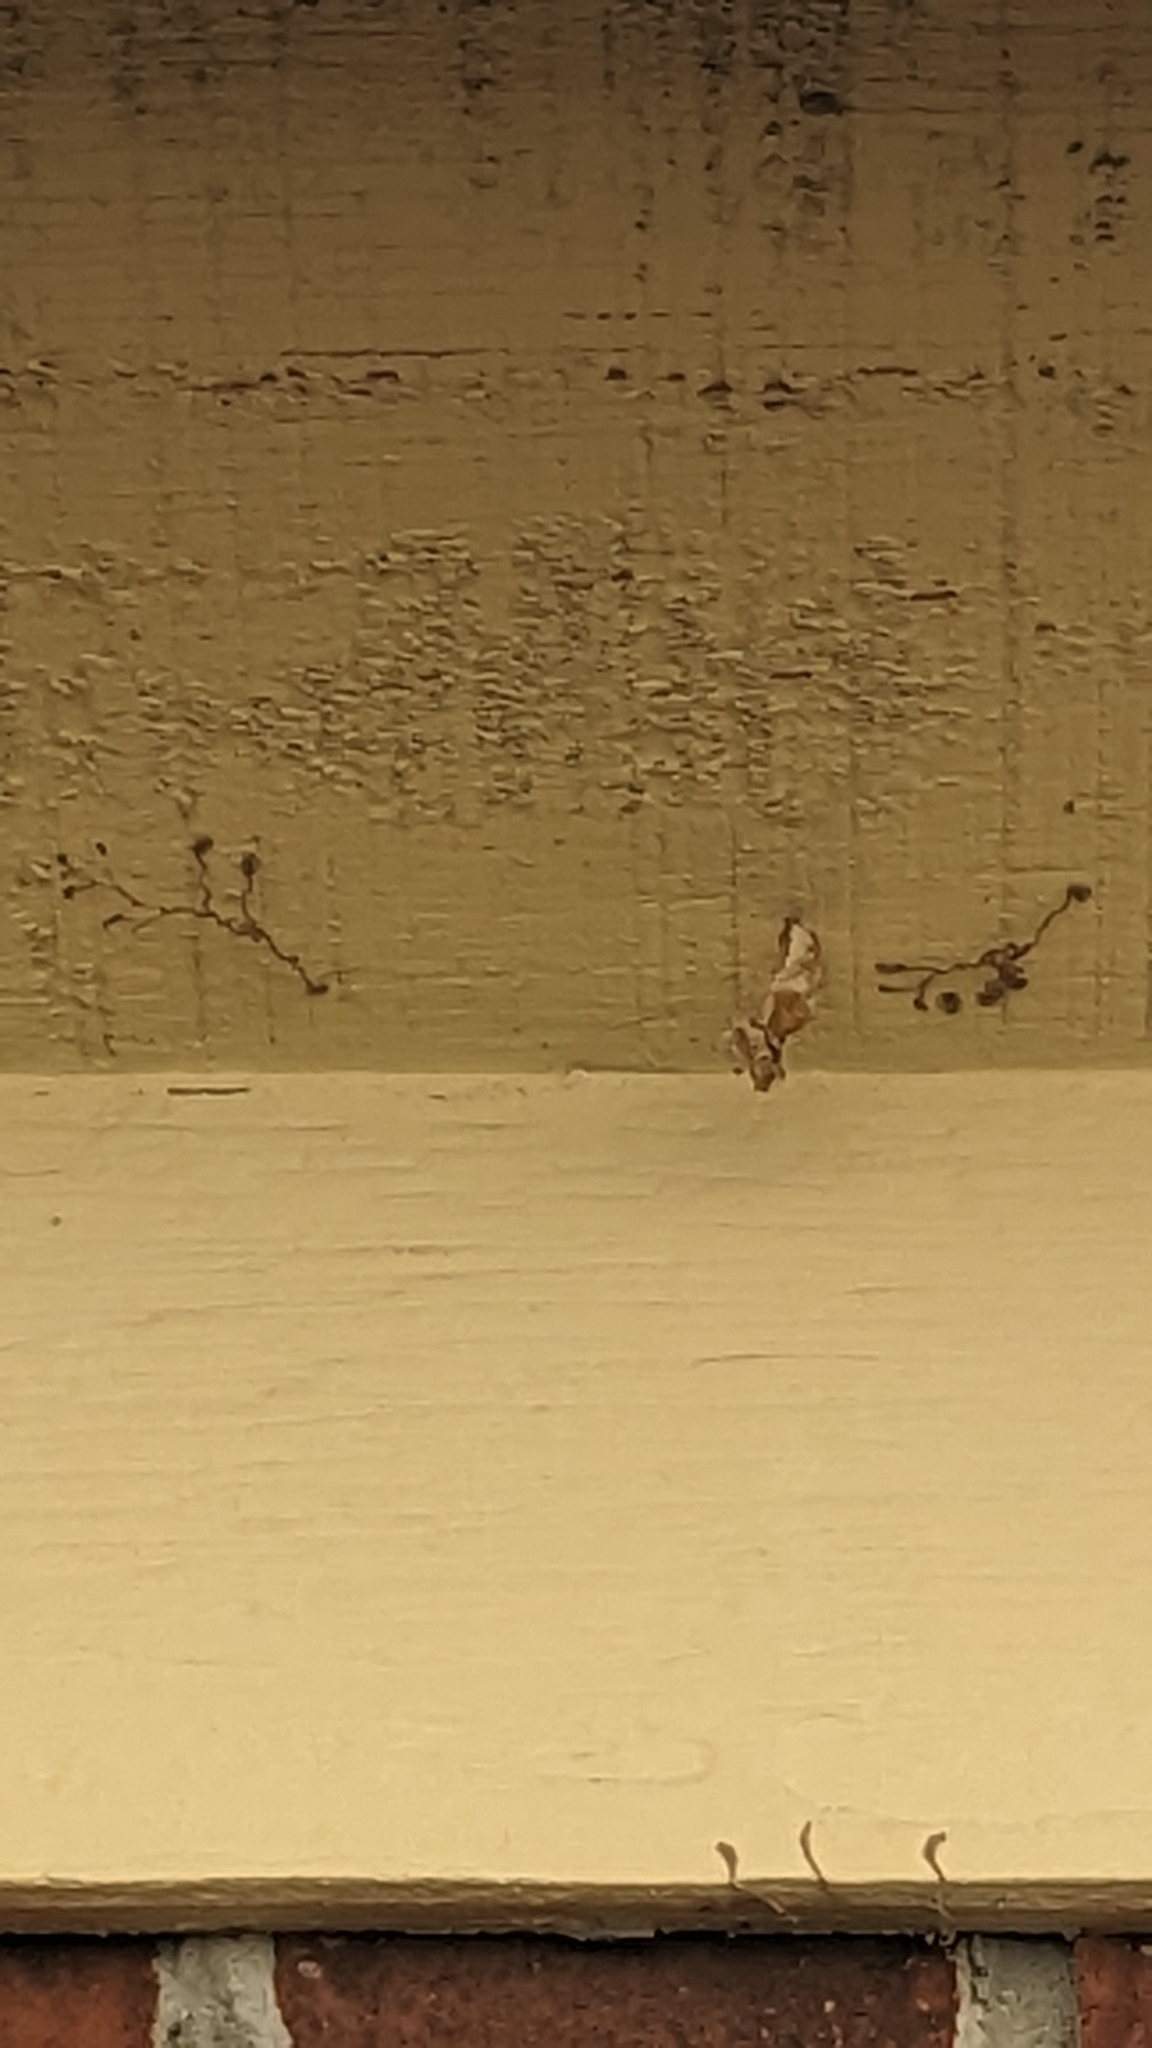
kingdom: Animalia
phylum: Arthropoda
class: Insecta
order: Lepidoptera
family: Nymphalidae
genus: Dione
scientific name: Dione vanillae
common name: Gulf fritillary
